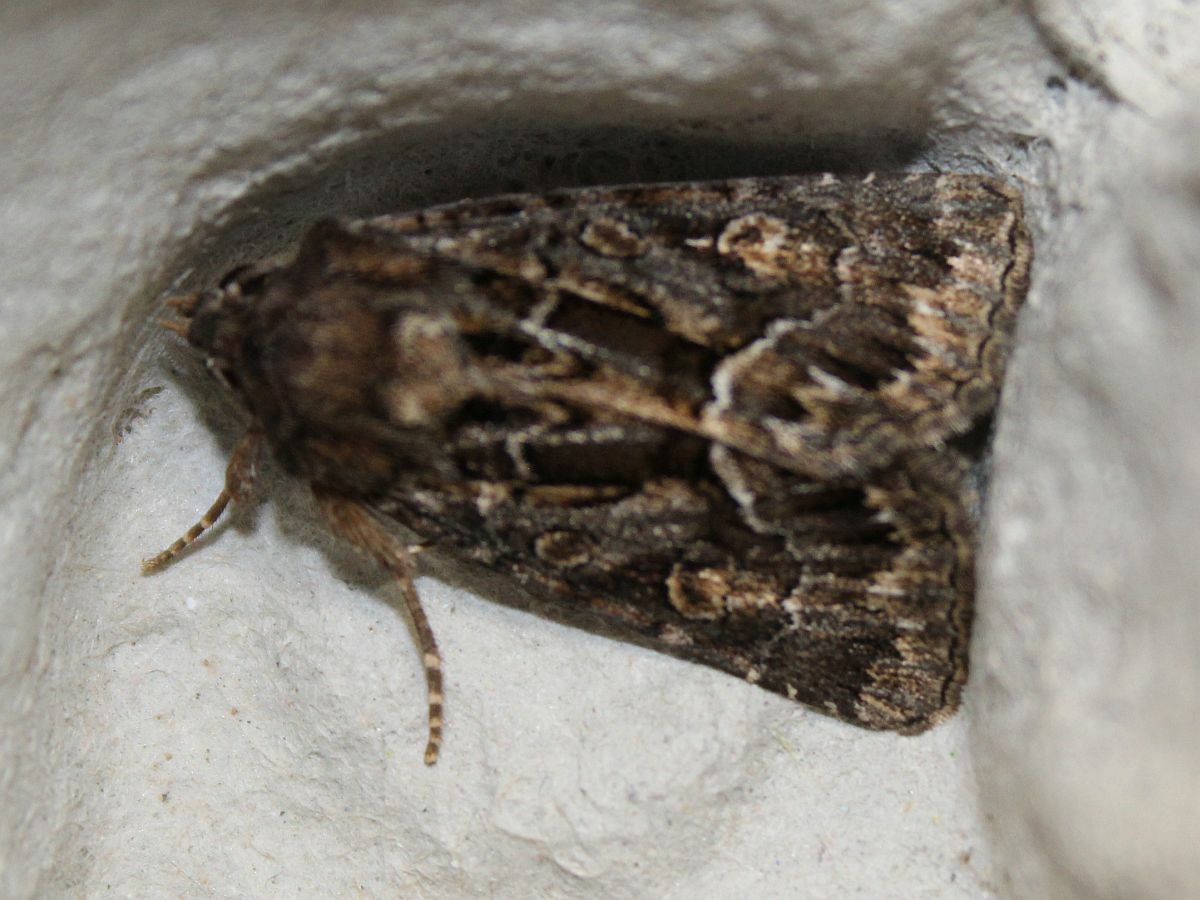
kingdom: Animalia
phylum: Arthropoda
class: Insecta
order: Lepidoptera
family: Noctuidae
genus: Thalpophila
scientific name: Thalpophila matura
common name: Straw underwing
